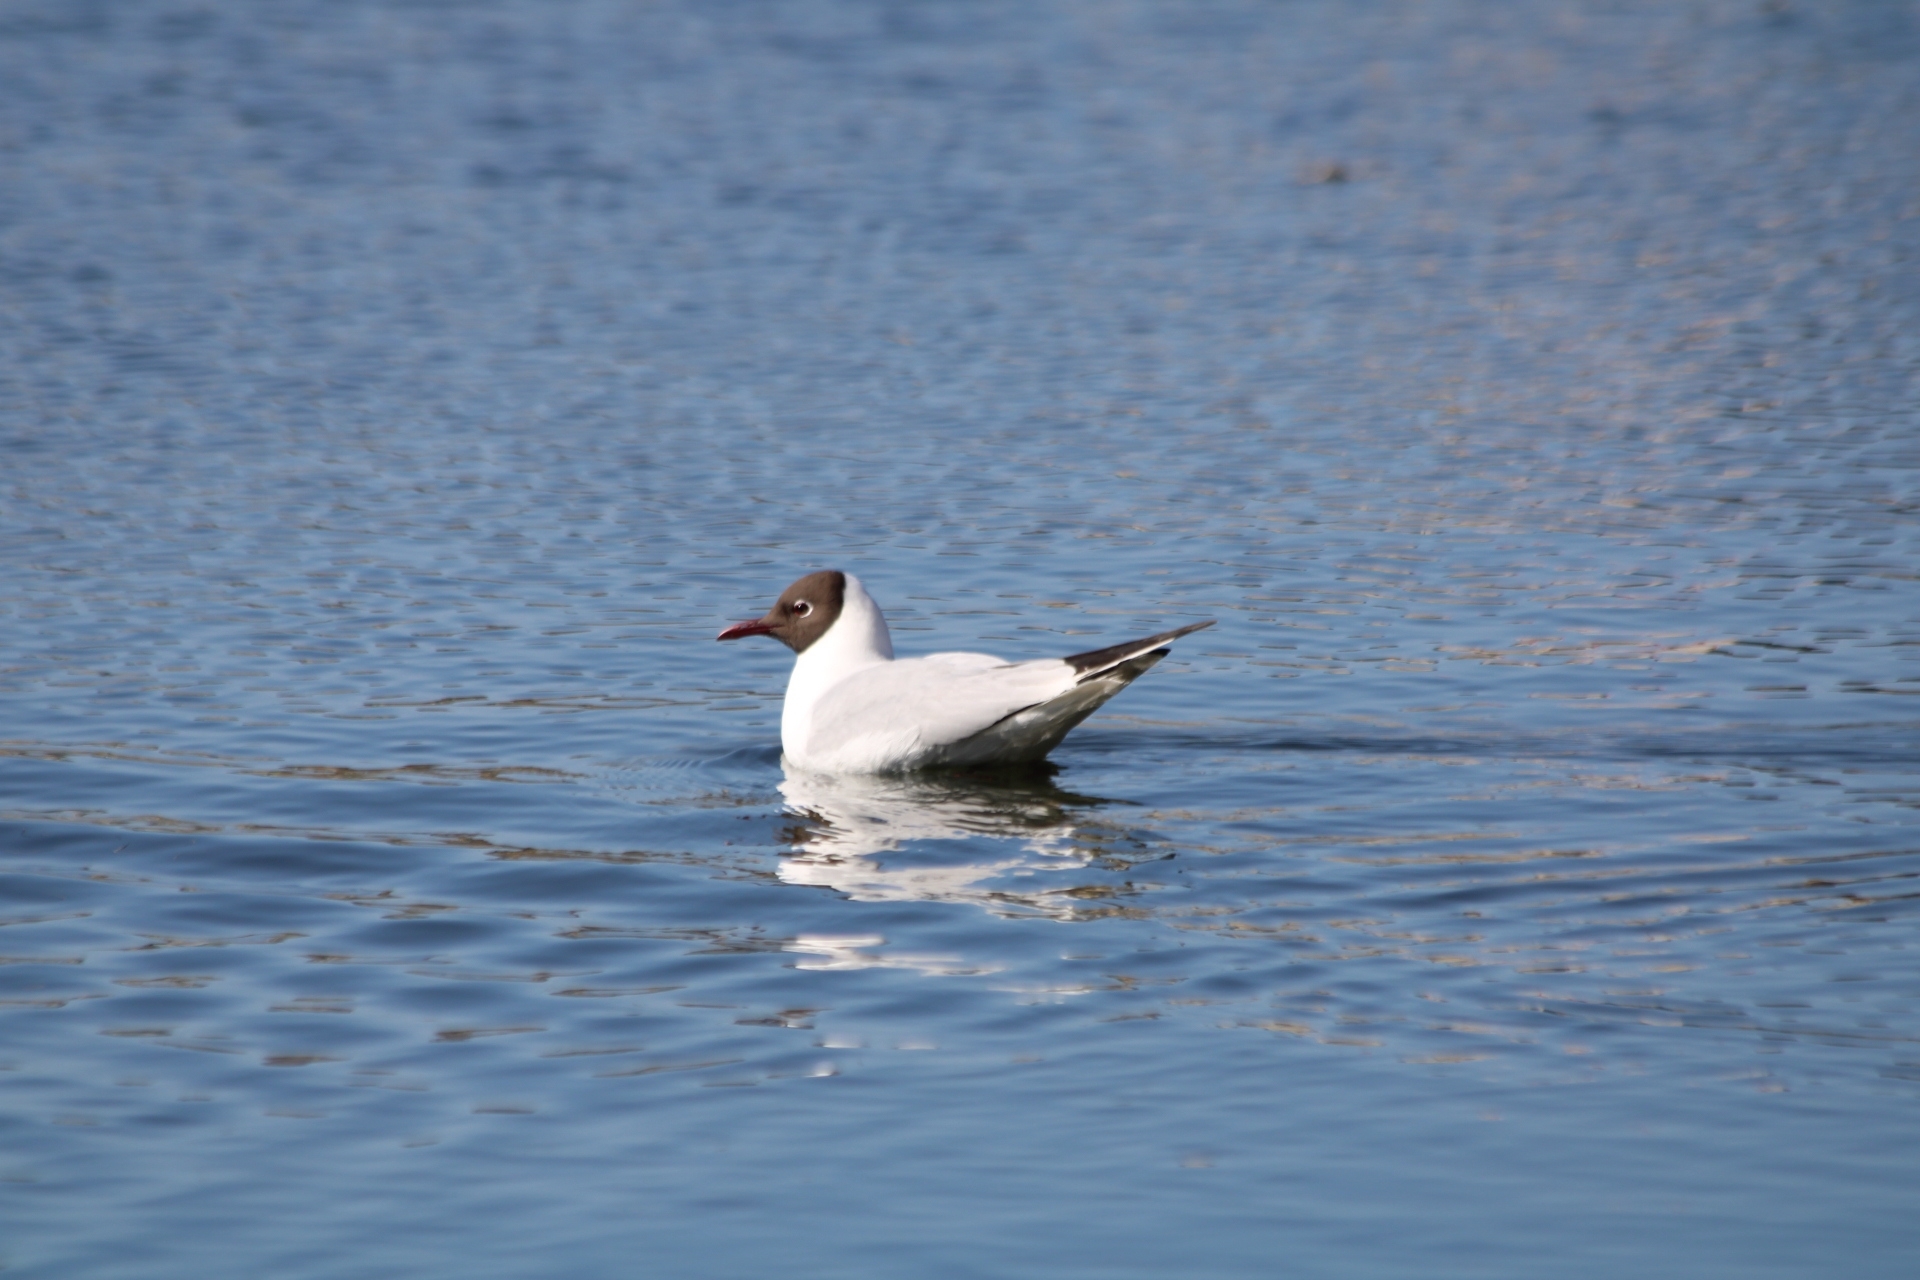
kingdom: Animalia
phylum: Chordata
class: Aves
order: Charadriiformes
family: Laridae
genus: Chroicocephalus
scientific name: Chroicocephalus ridibundus
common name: Black-headed gull
